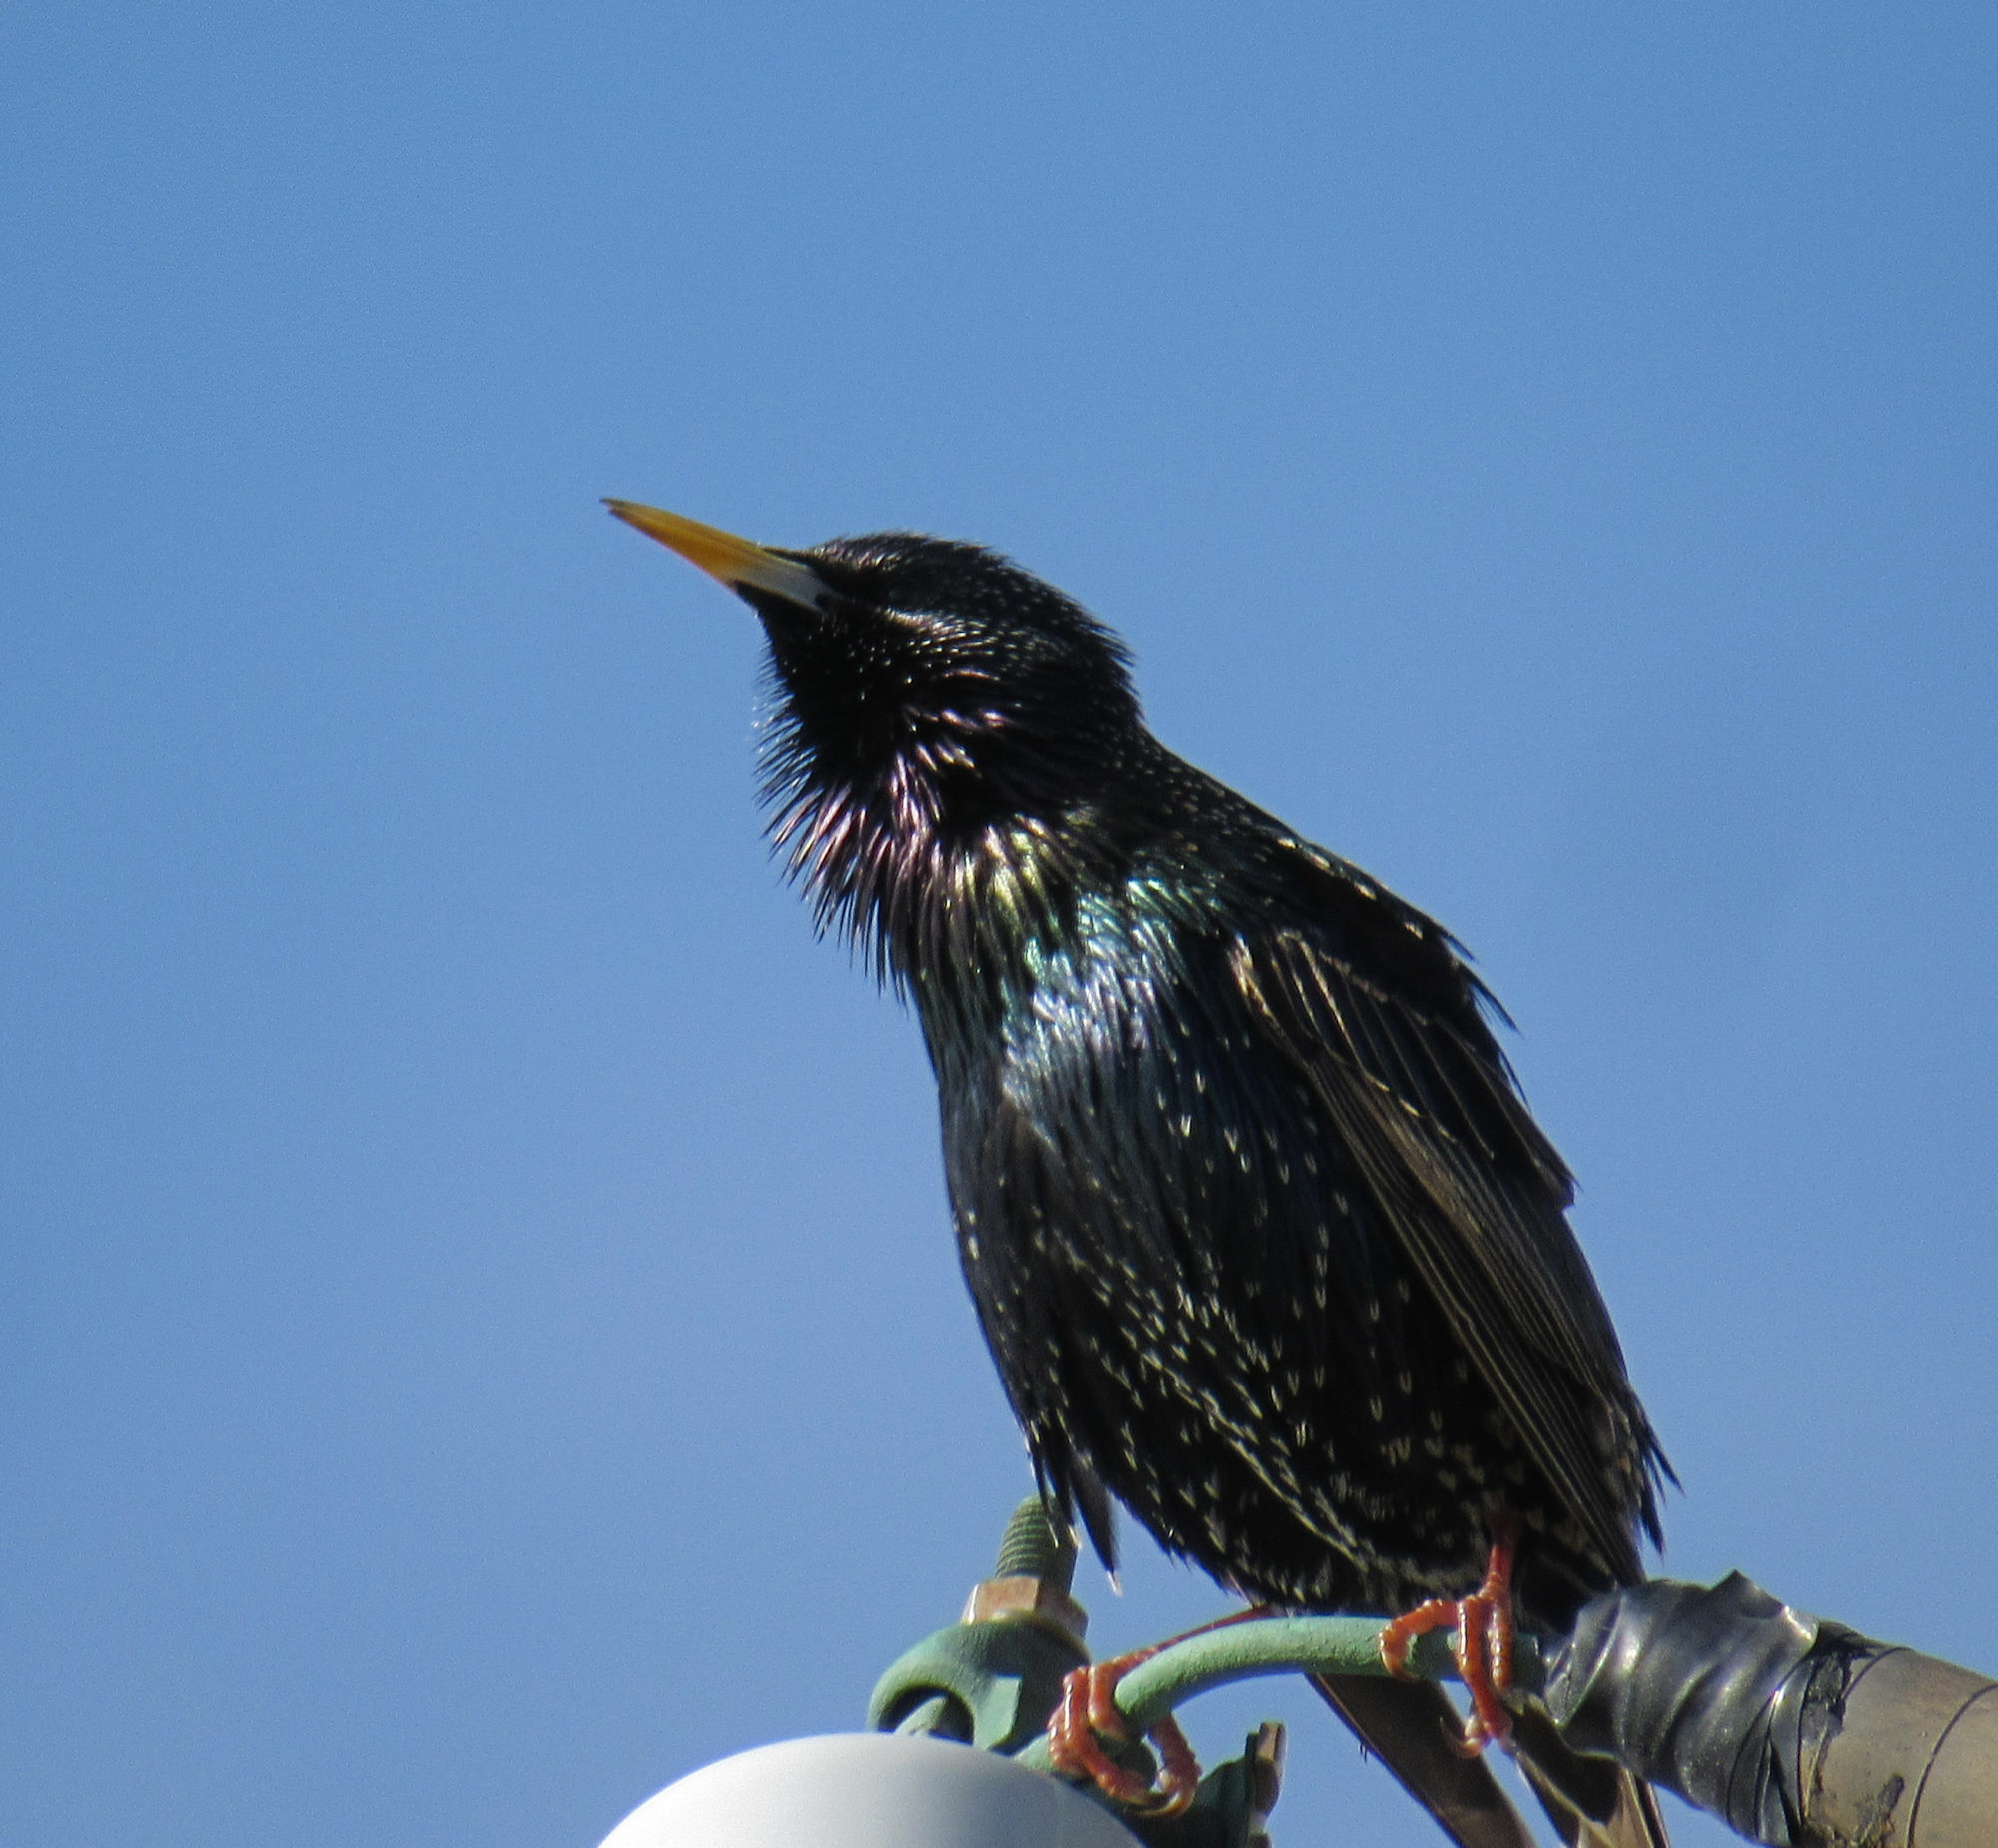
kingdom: Animalia
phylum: Chordata
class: Aves
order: Passeriformes
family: Sturnidae
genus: Sturnus
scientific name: Sturnus vulgaris
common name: Common starling
